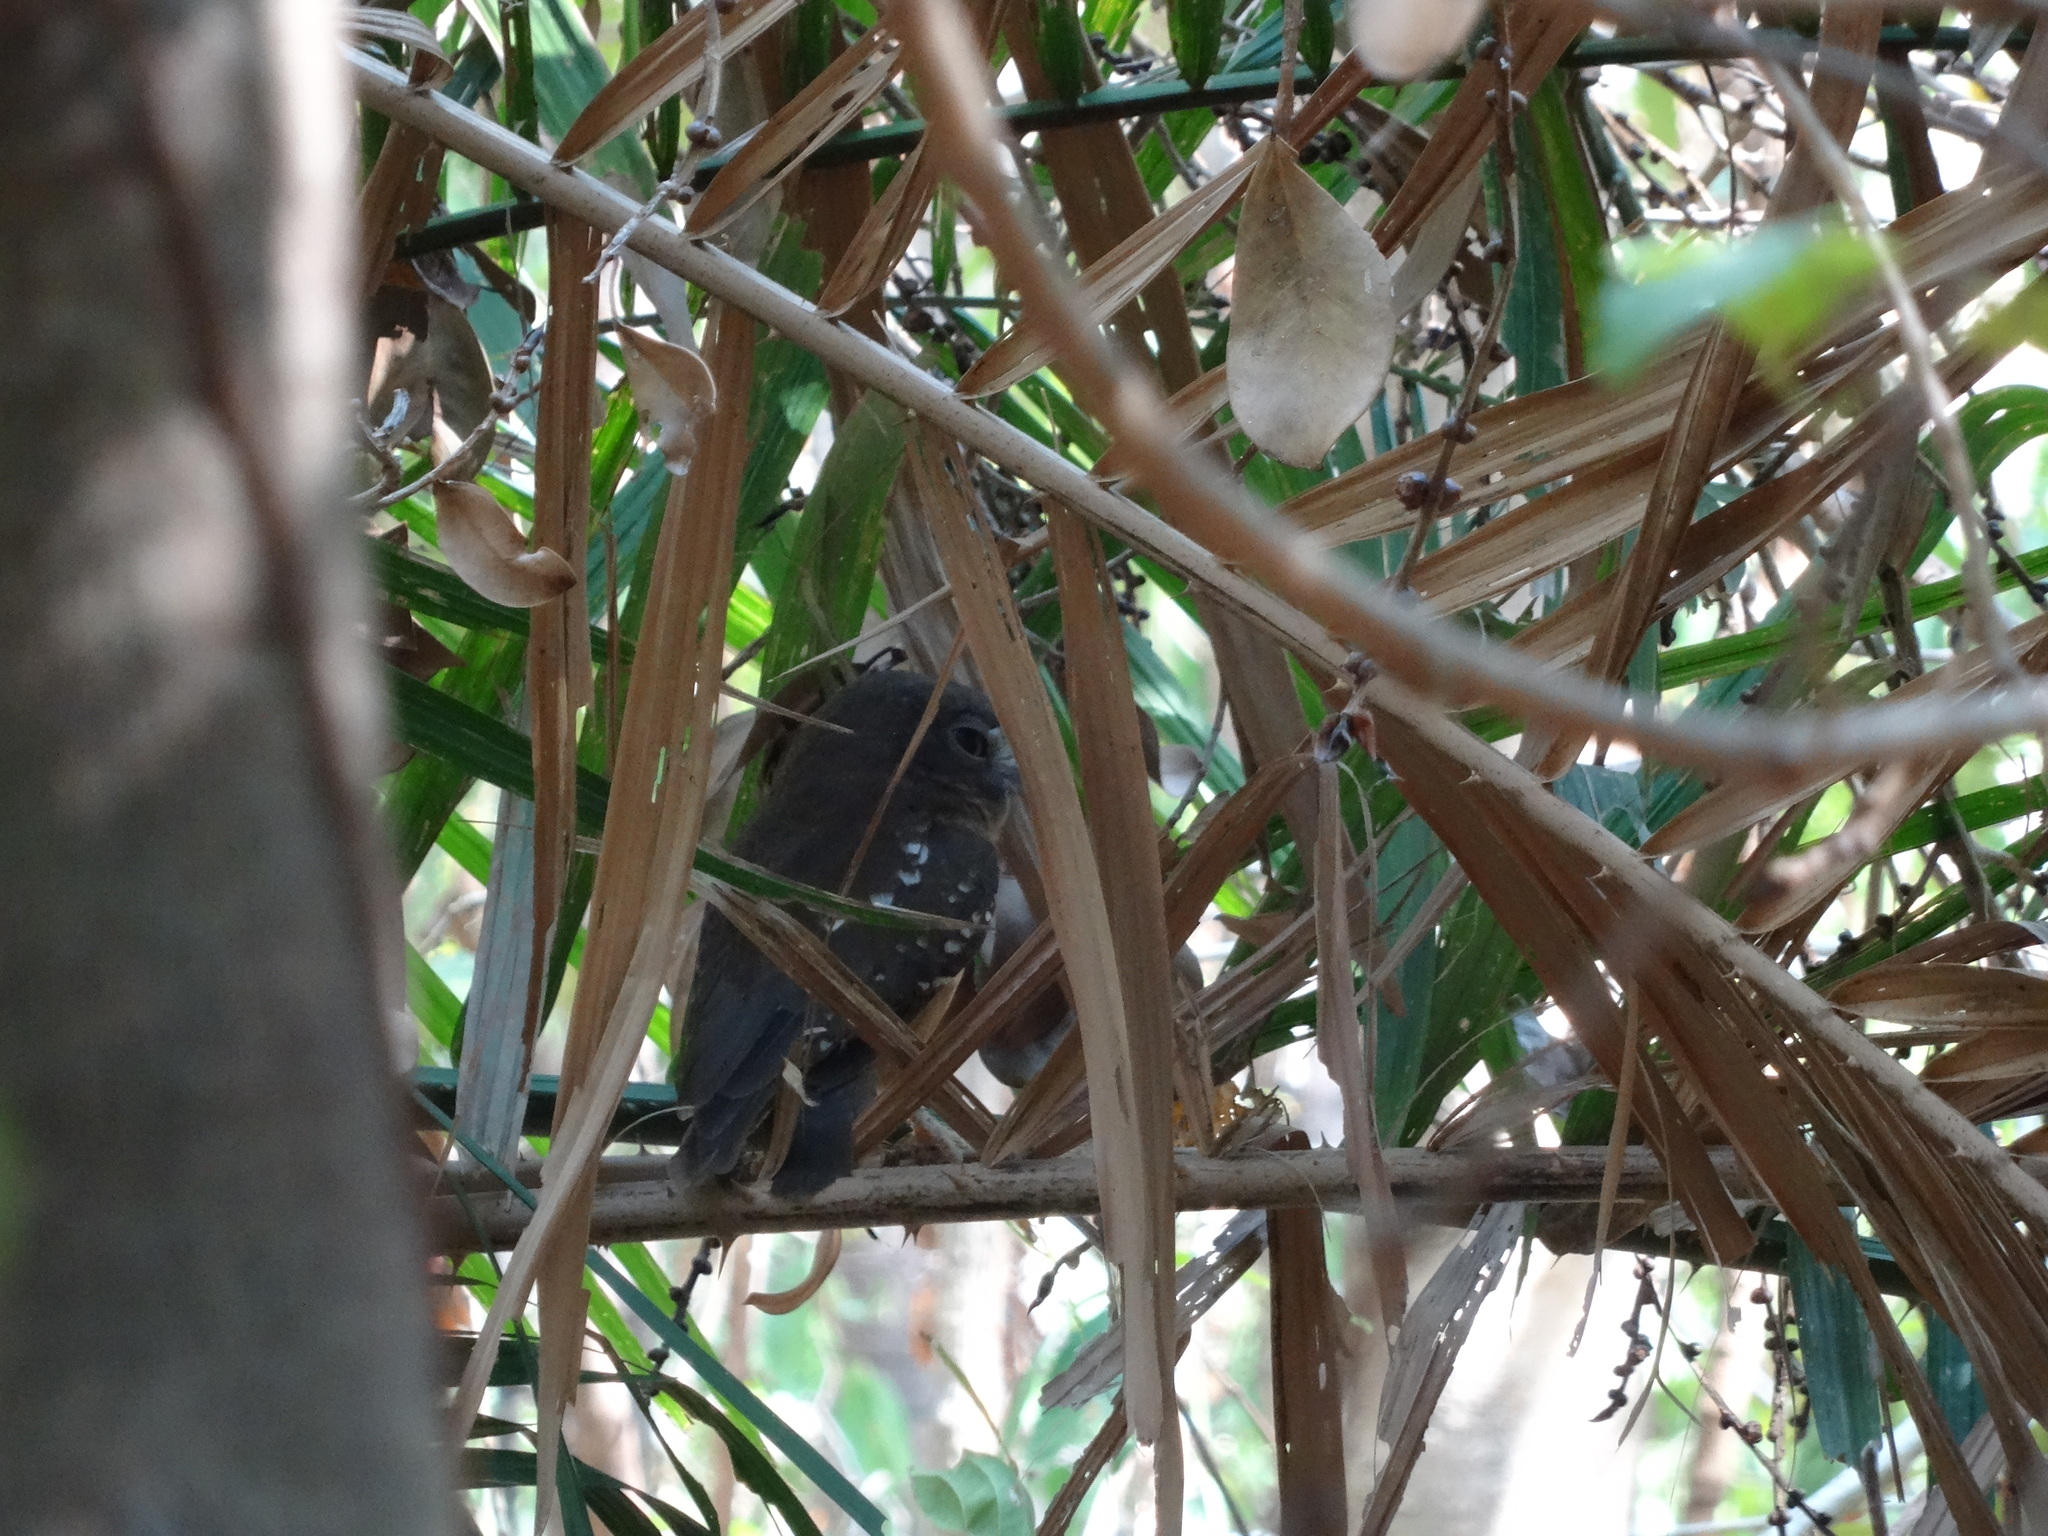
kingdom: Animalia
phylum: Chordata
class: Aves
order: Strigiformes
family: Strigidae
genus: Ninox
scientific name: Ninox ochracea
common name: Ochre-bellied boobook
